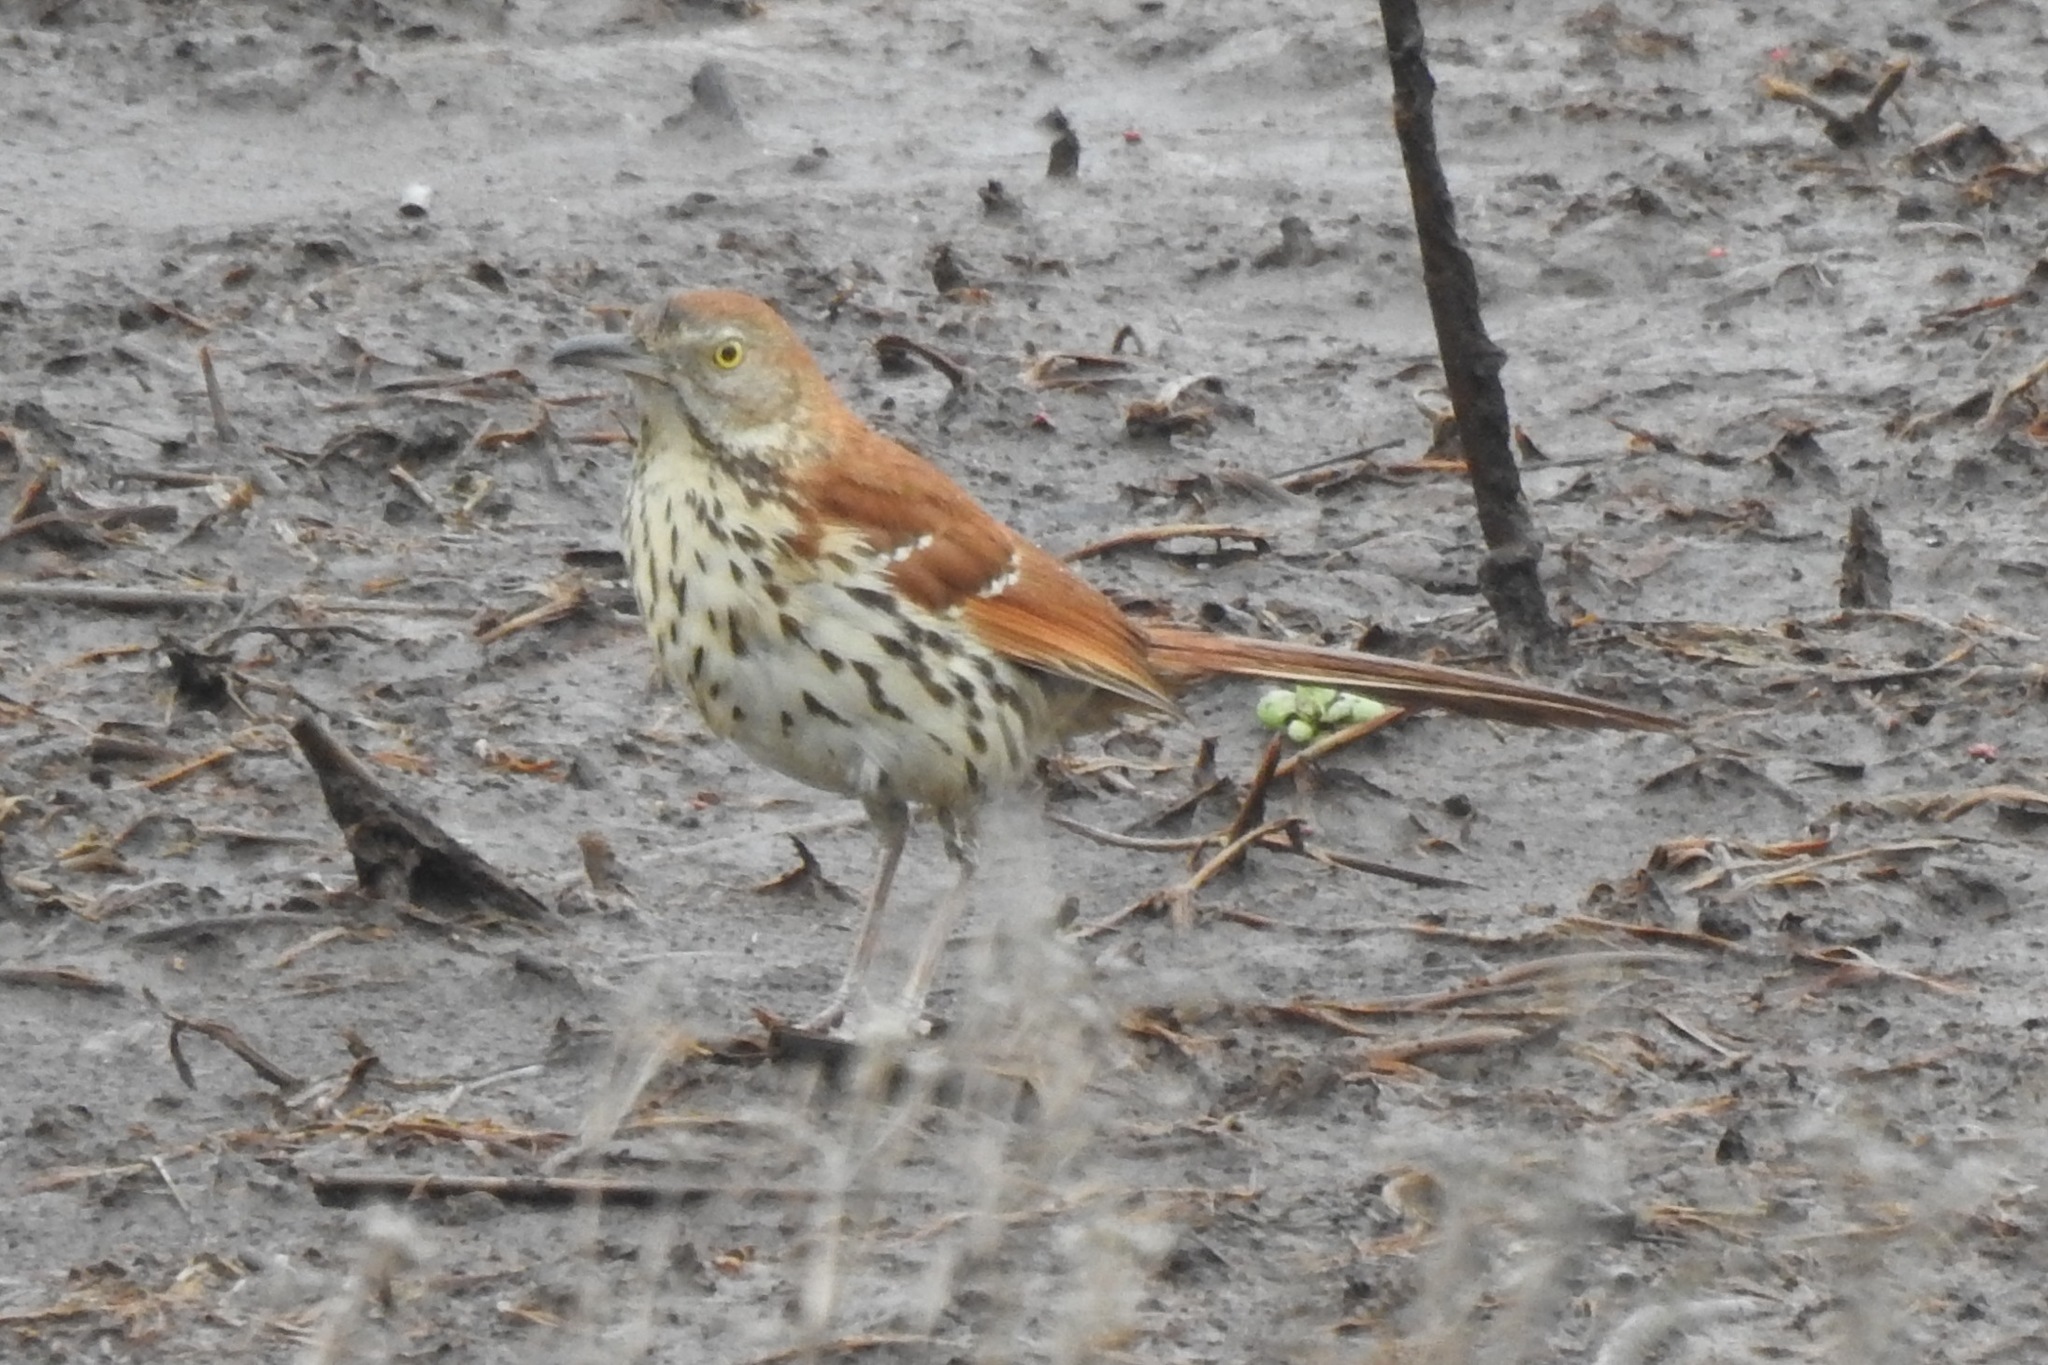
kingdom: Animalia
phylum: Chordata
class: Aves
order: Passeriformes
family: Mimidae
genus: Toxostoma
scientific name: Toxostoma rufum
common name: Brown thrasher
